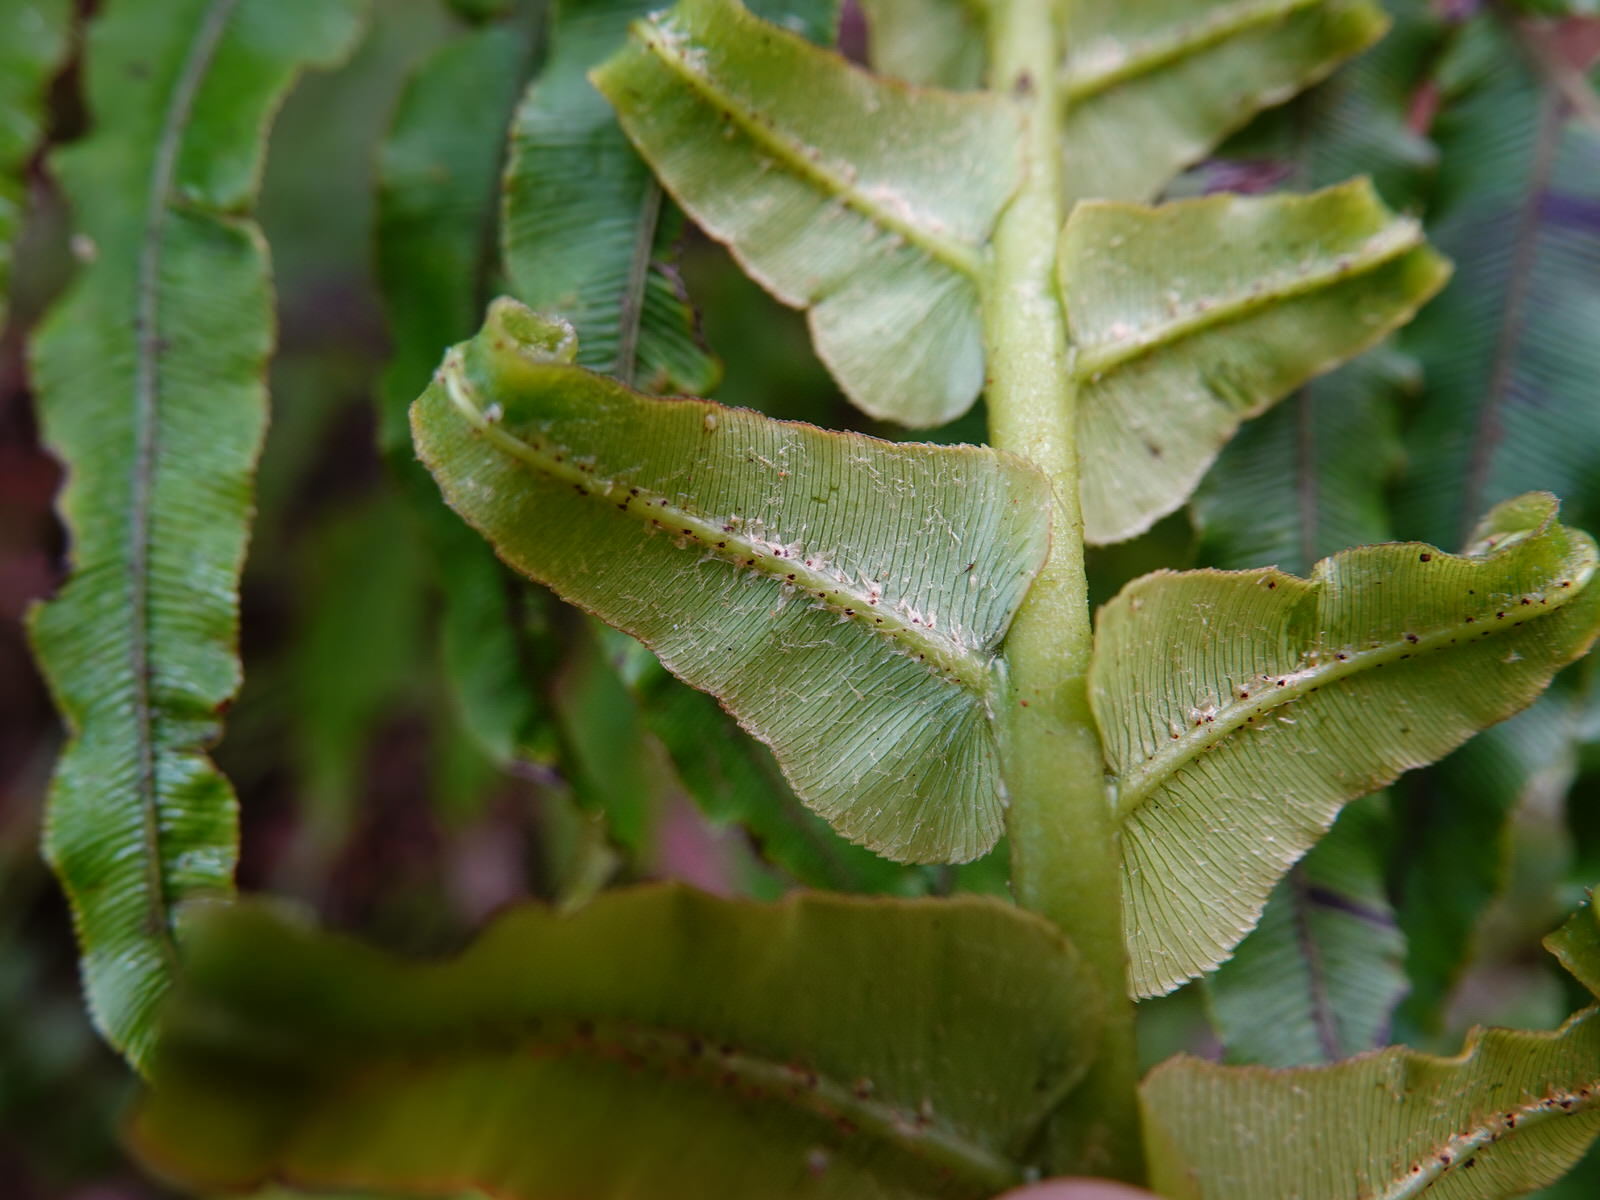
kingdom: Plantae
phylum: Tracheophyta
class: Polypodiopsida
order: Polypodiales
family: Blechnaceae
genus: Parablechnum
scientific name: Parablechnum novae-zelandiae
